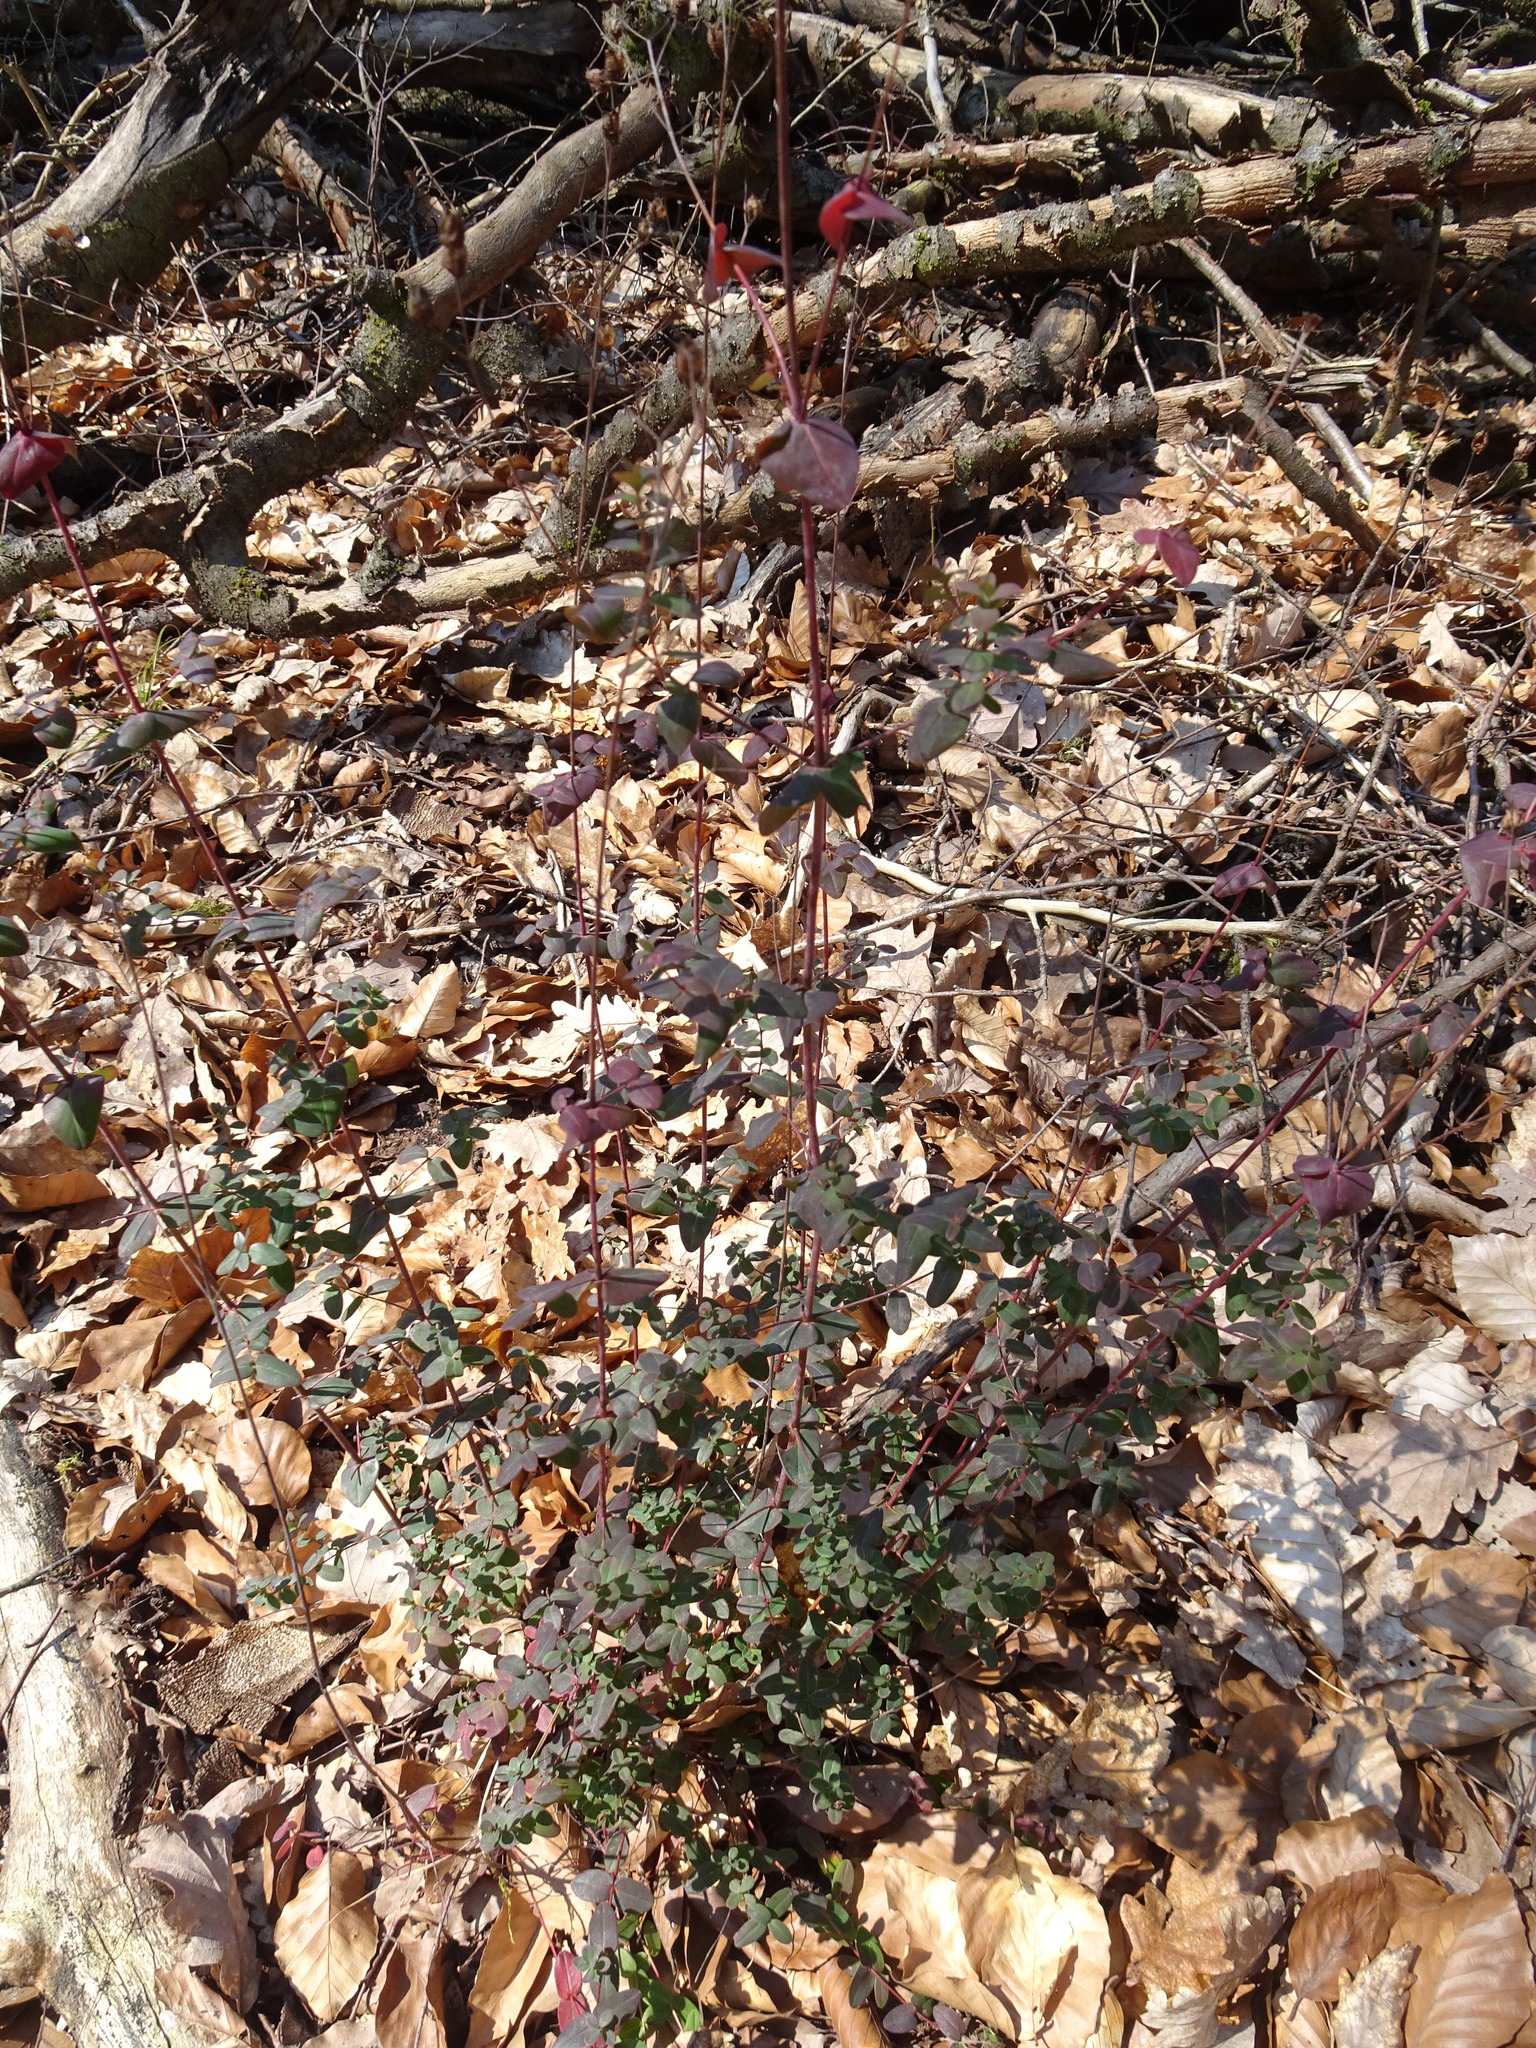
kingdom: Plantae
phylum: Tracheophyta
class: Magnoliopsida
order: Malpighiales
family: Hypericaceae
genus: Hypericum
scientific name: Hypericum pulchrum
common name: Slender st. john's-wort
